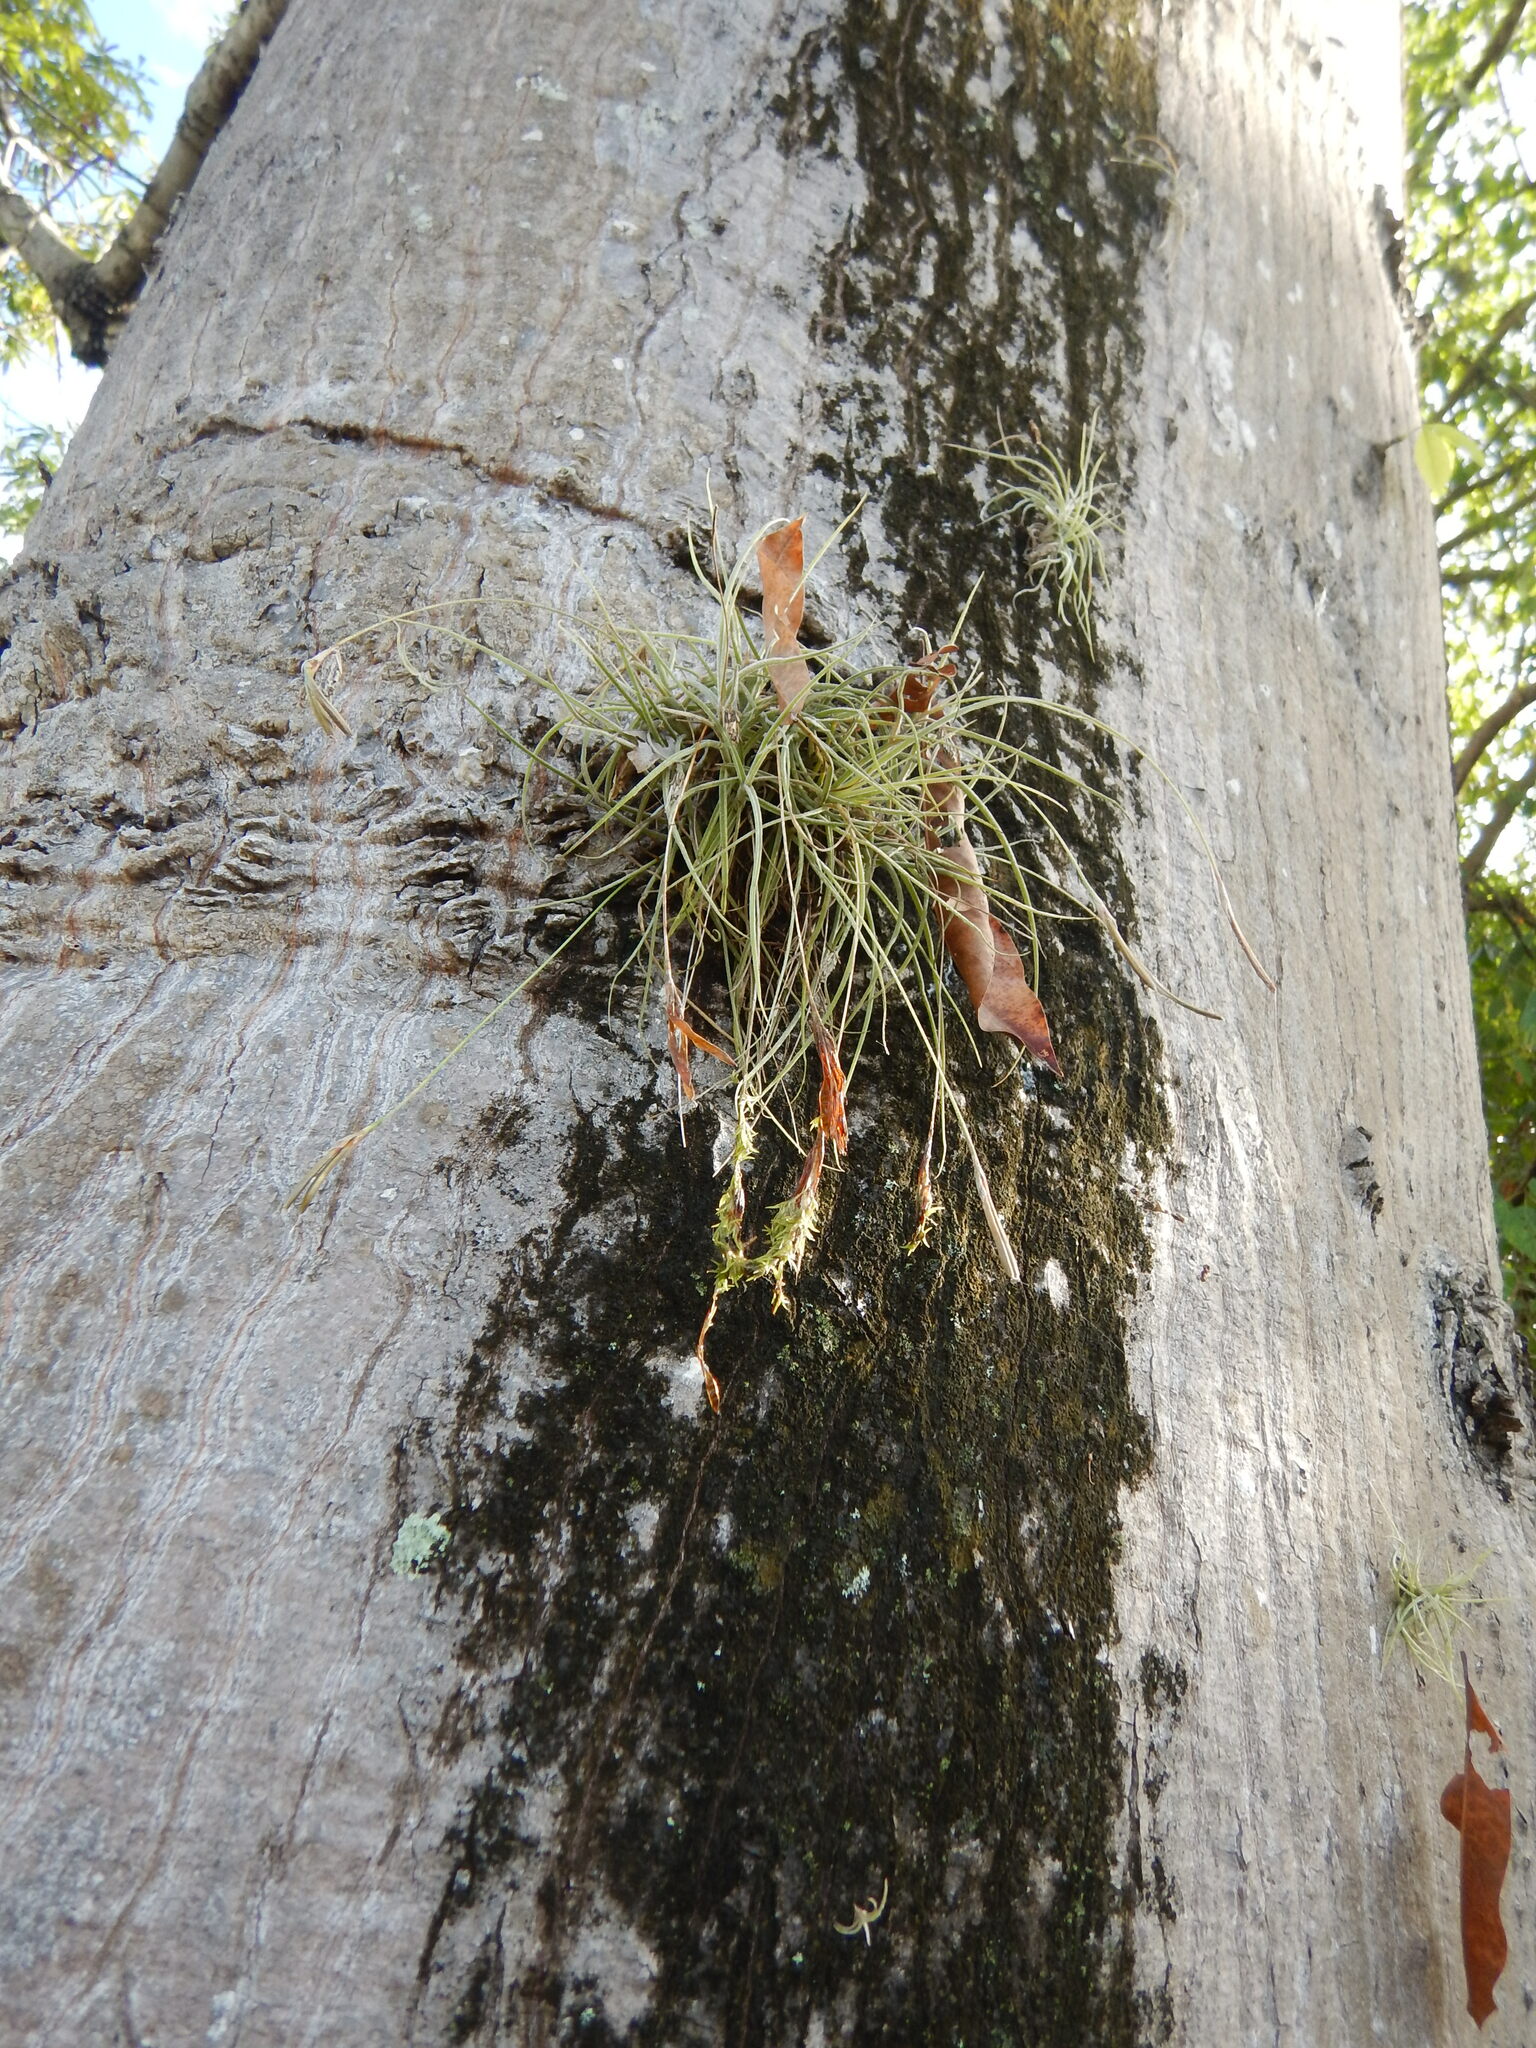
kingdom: Plantae
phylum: Tracheophyta
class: Liliopsida
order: Poales
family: Bromeliaceae
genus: Tillandsia
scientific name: Tillandsia recurvata
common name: Small ballmoss
